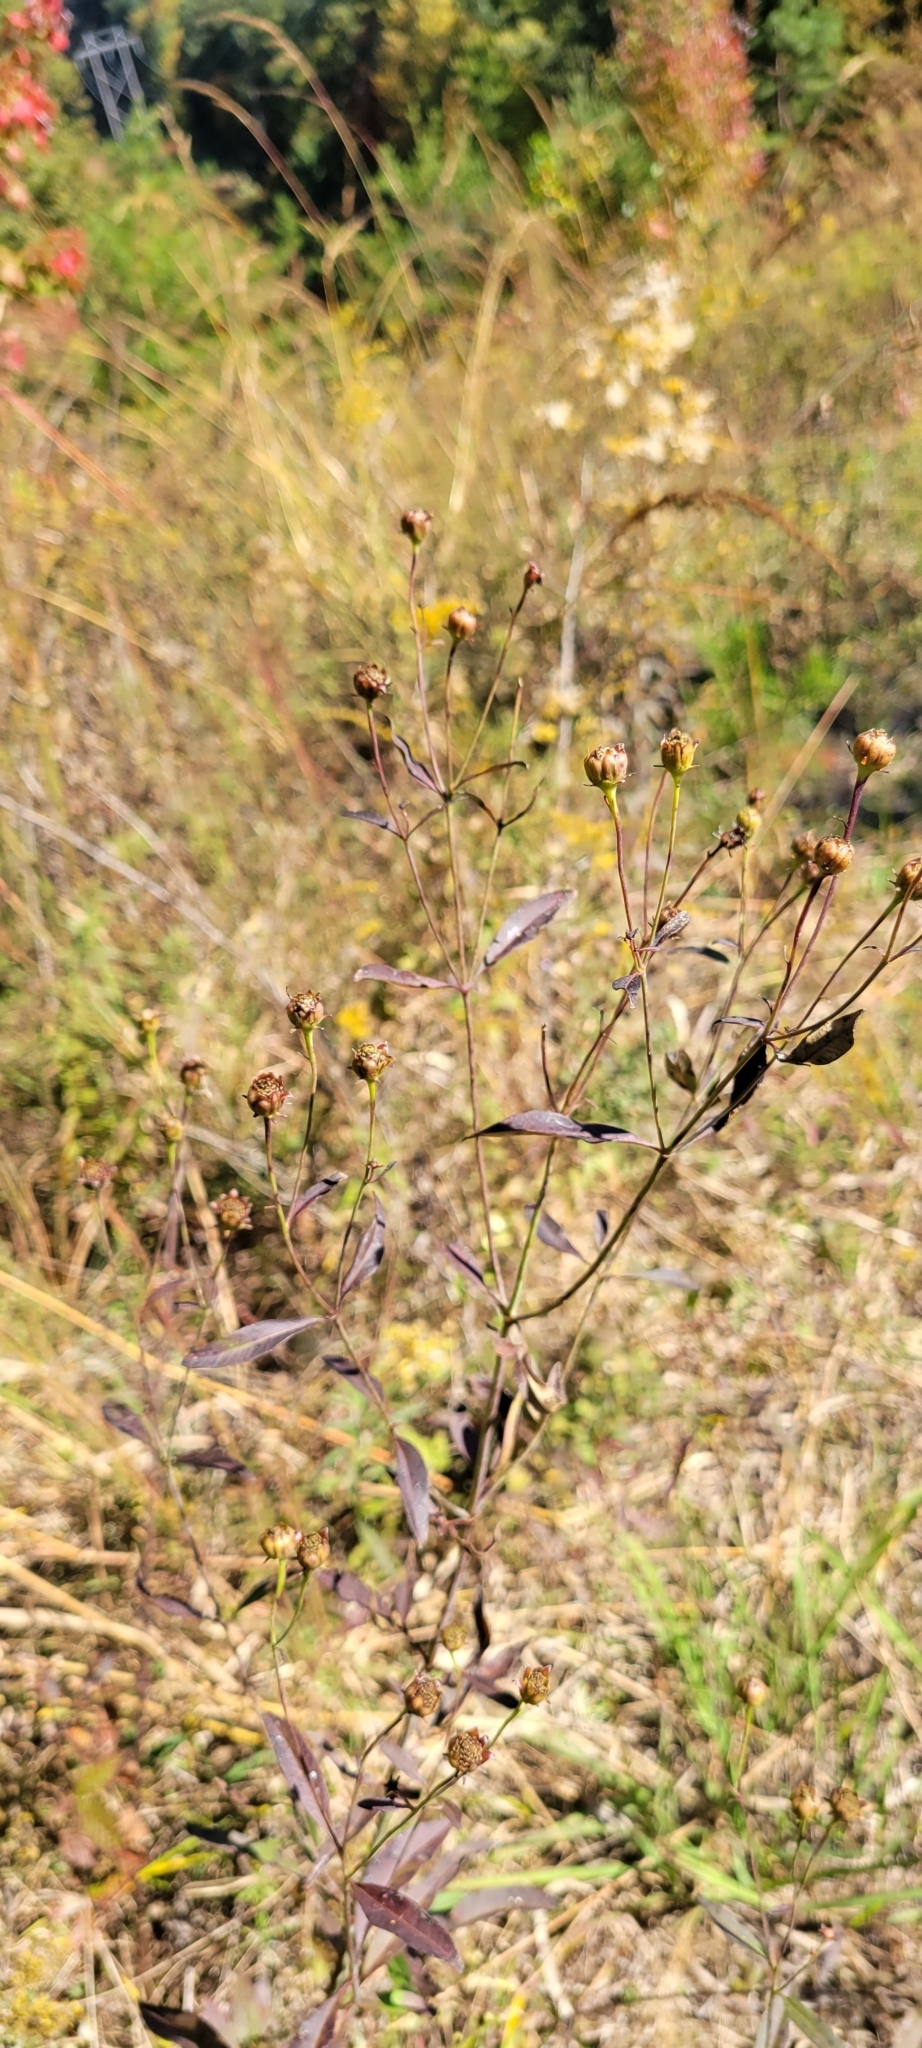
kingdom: Plantae
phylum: Tracheophyta
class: Magnoliopsida
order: Asterales
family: Asteraceae
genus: Coreopsis
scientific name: Coreopsis tripteris
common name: Tall coreopsis
